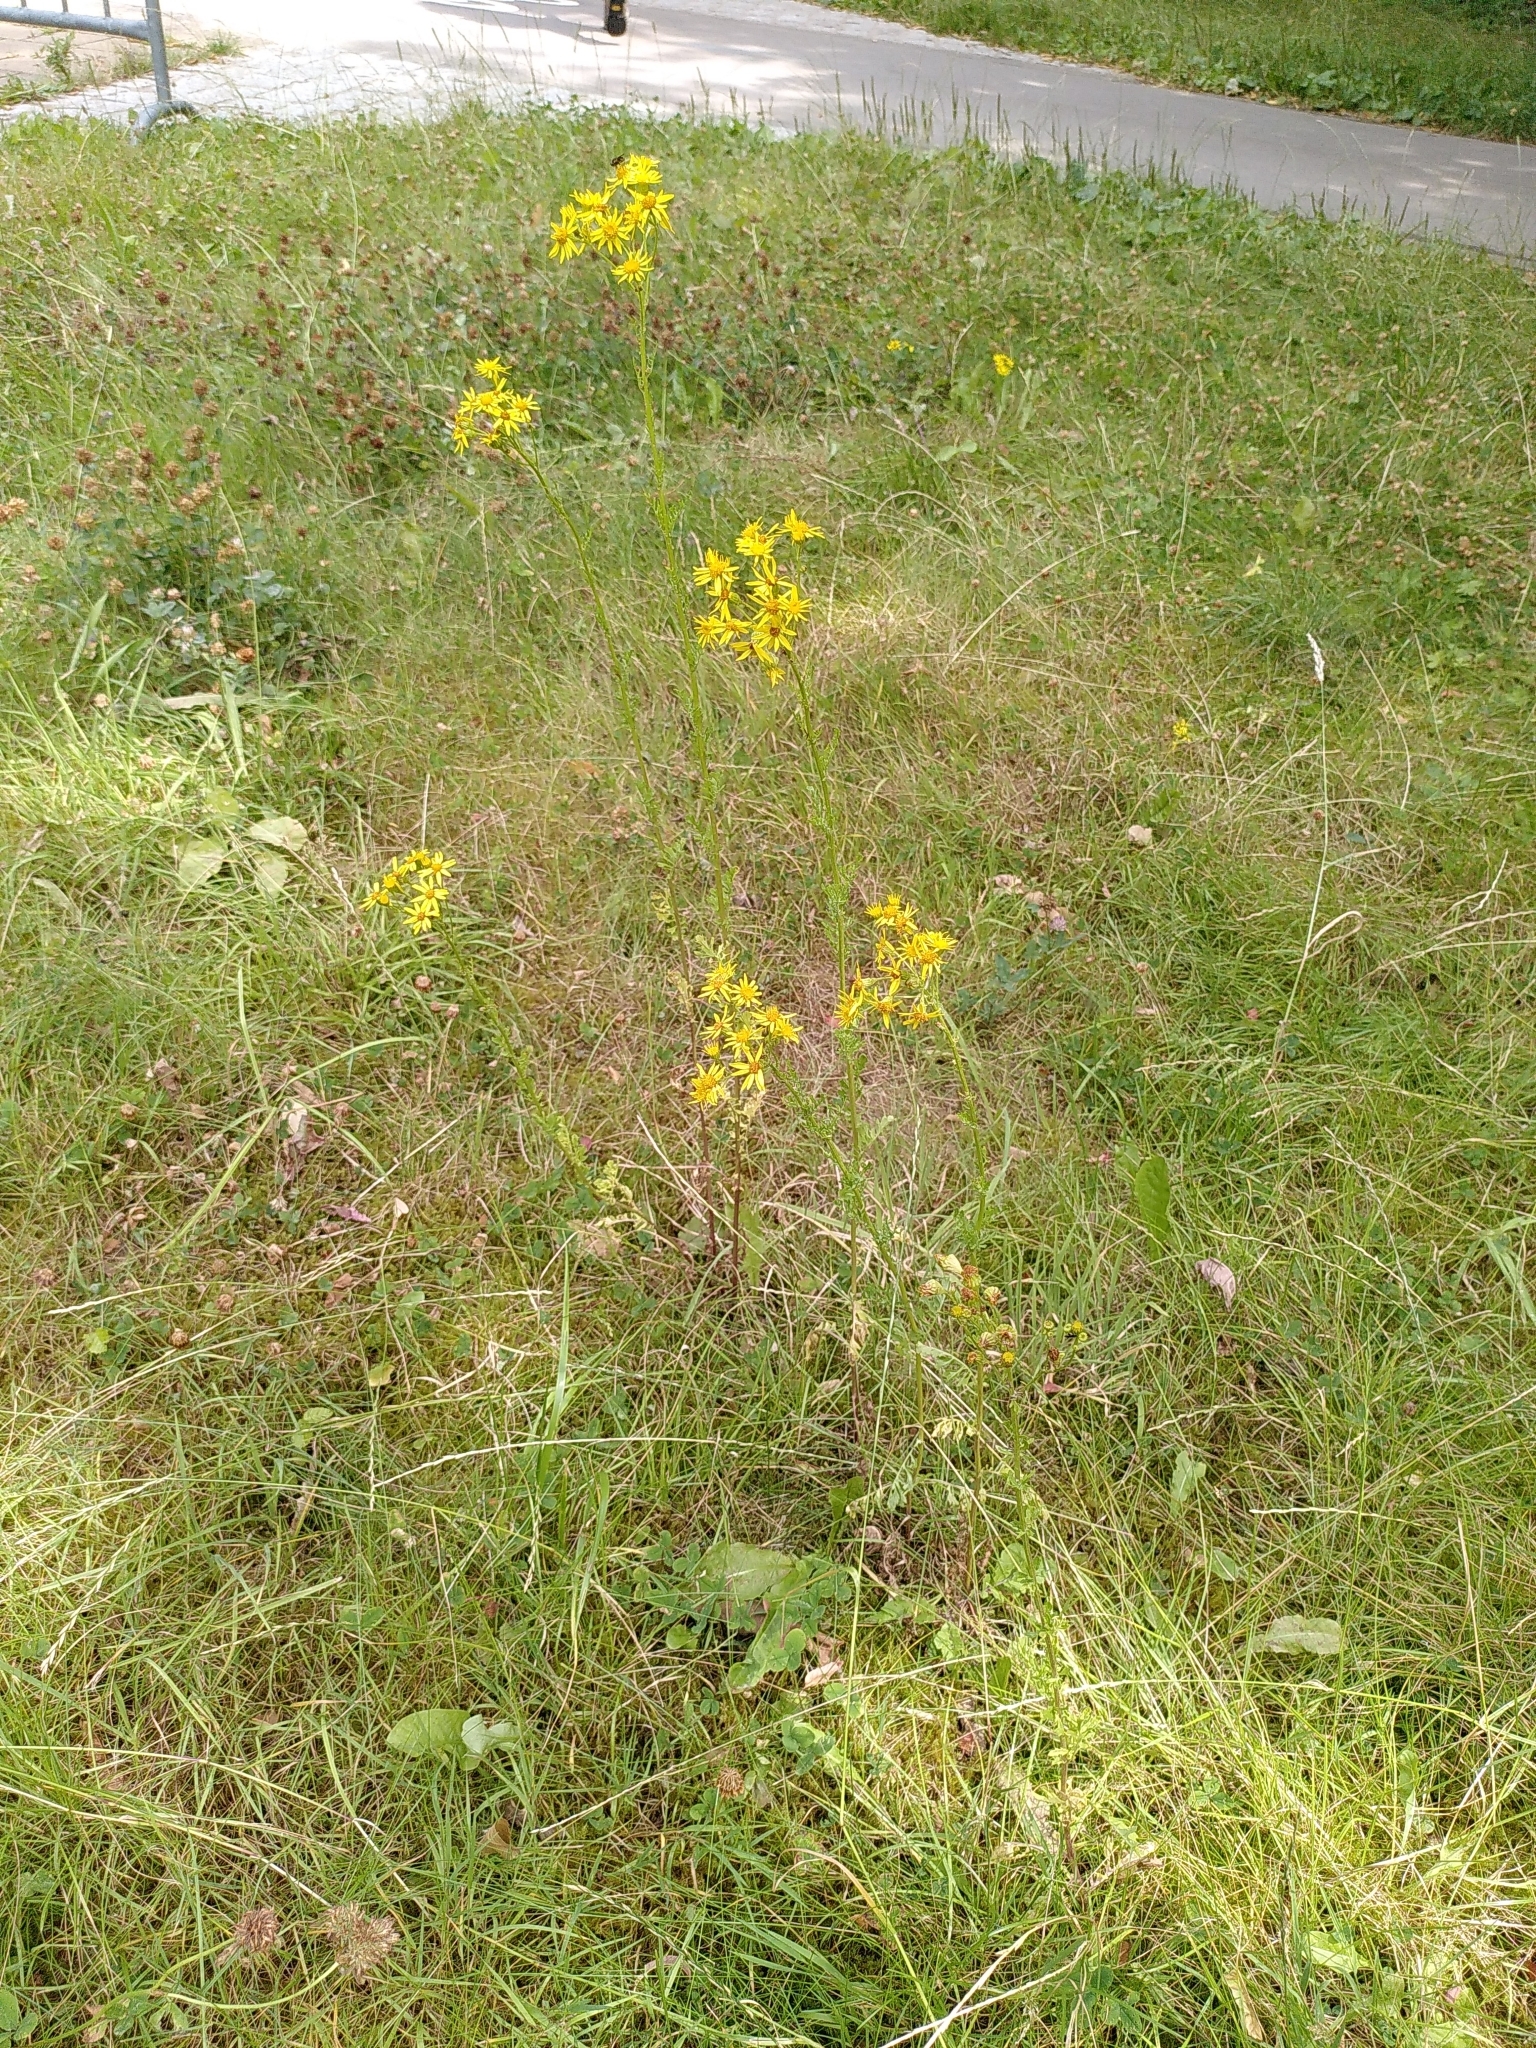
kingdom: Plantae
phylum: Tracheophyta
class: Magnoliopsida
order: Asterales
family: Asteraceae
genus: Jacobaea
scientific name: Jacobaea vulgaris
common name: Stinking willie
